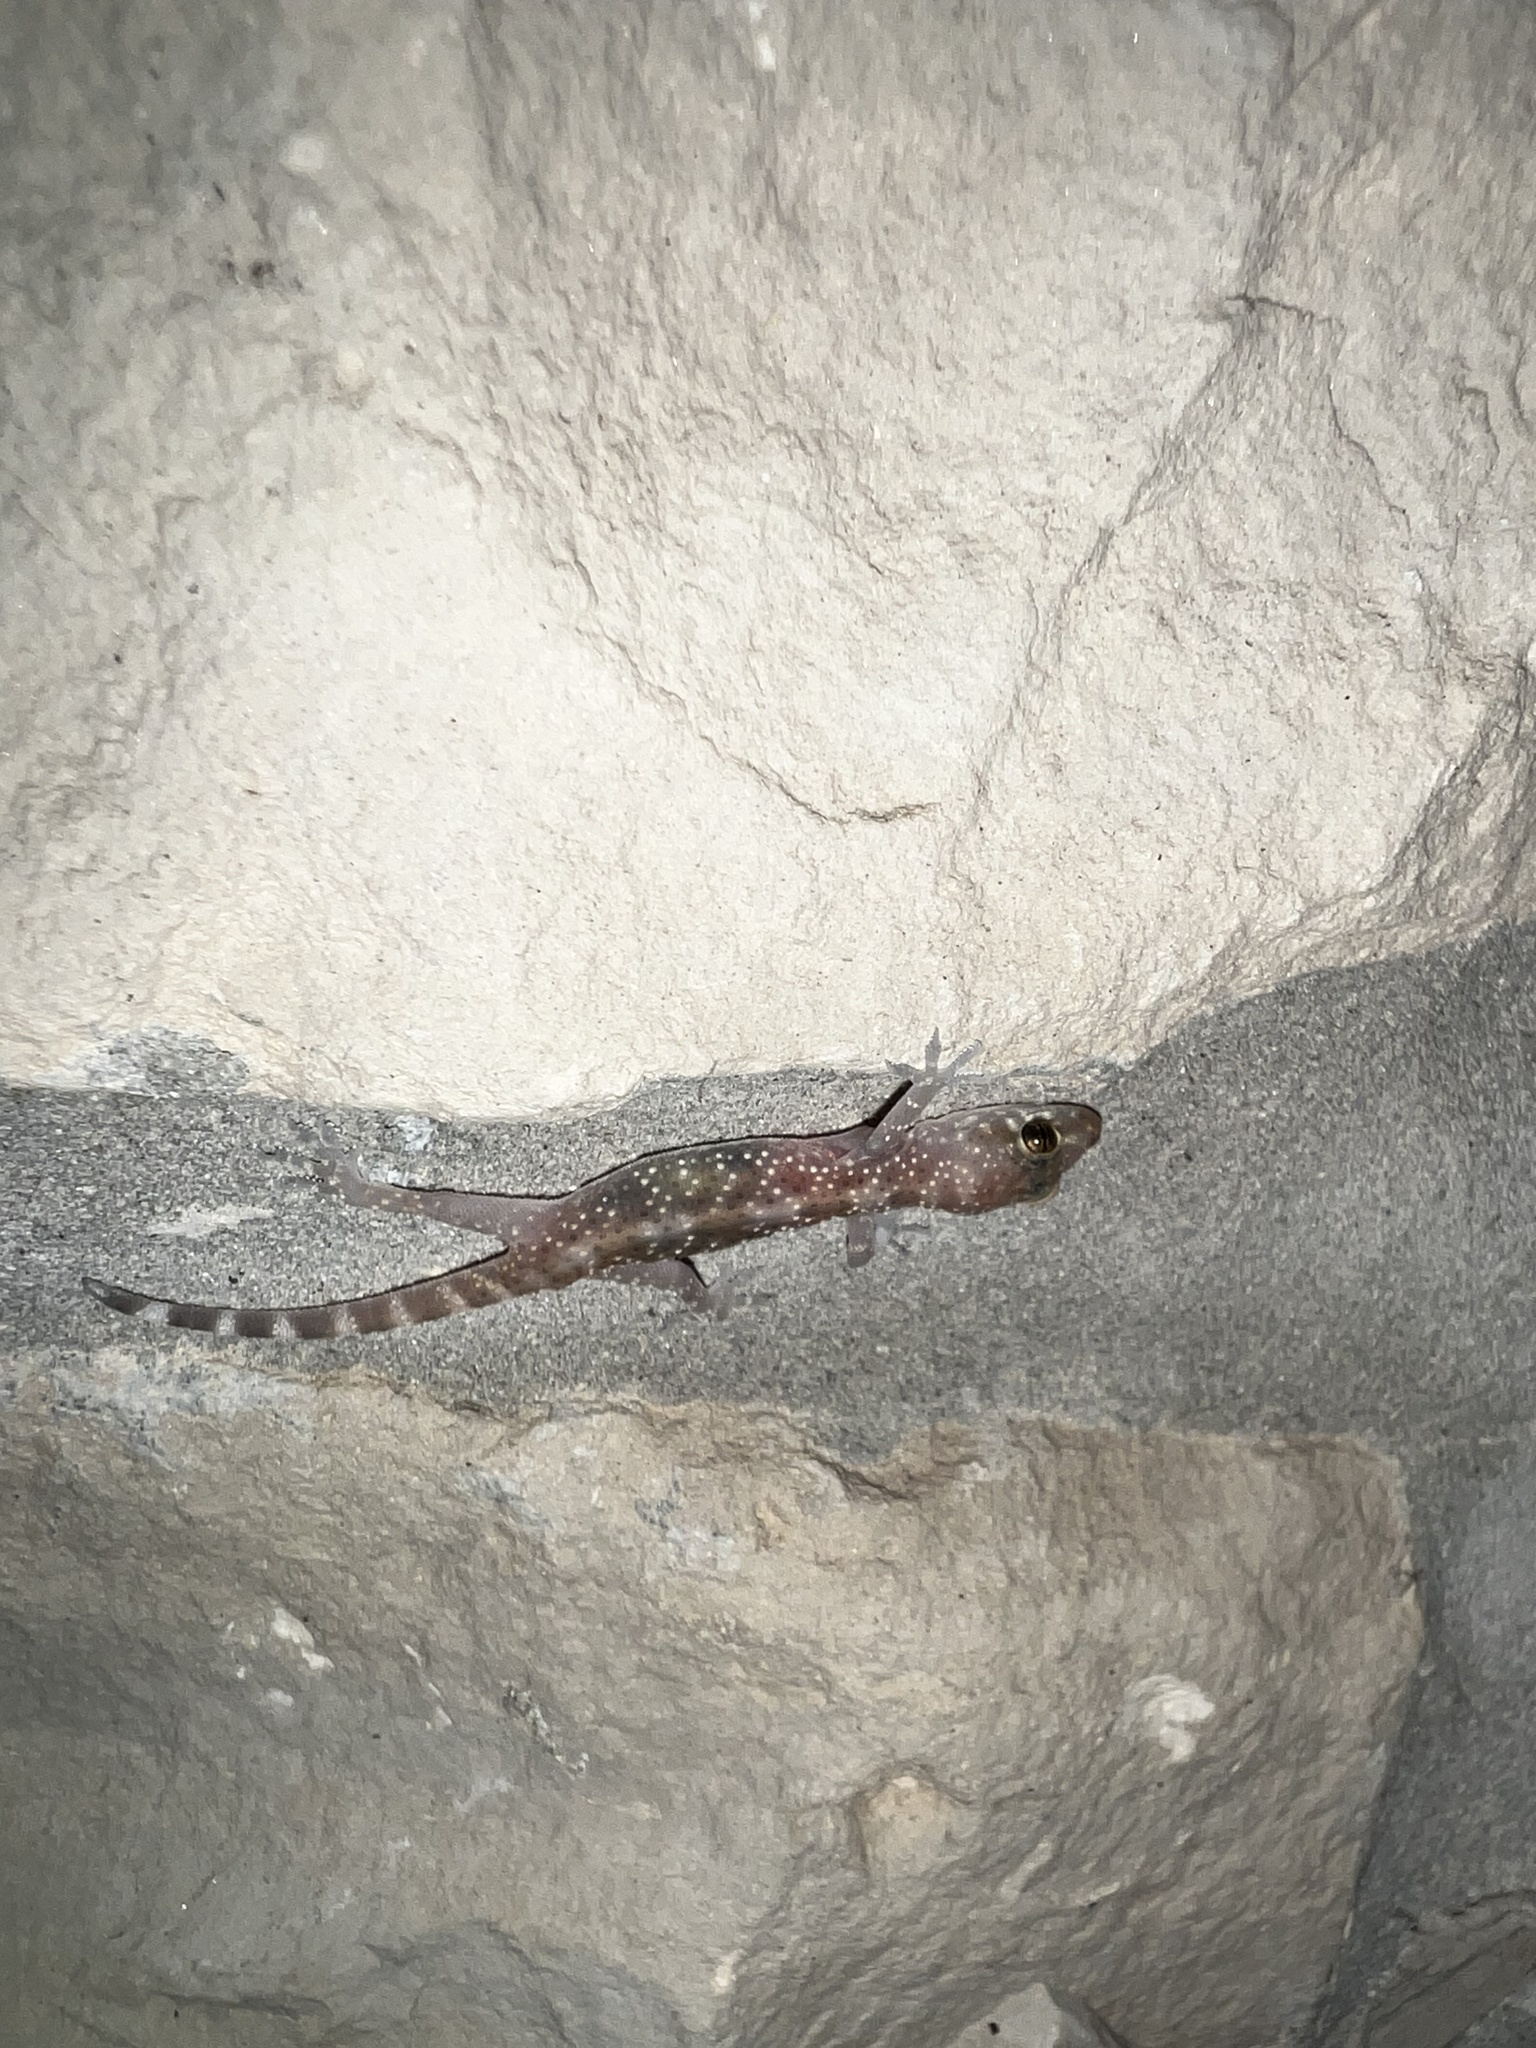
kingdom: Animalia
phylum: Chordata
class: Squamata
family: Gekkonidae
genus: Hemidactylus
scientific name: Hemidactylus turcicus
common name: Turkish gecko
